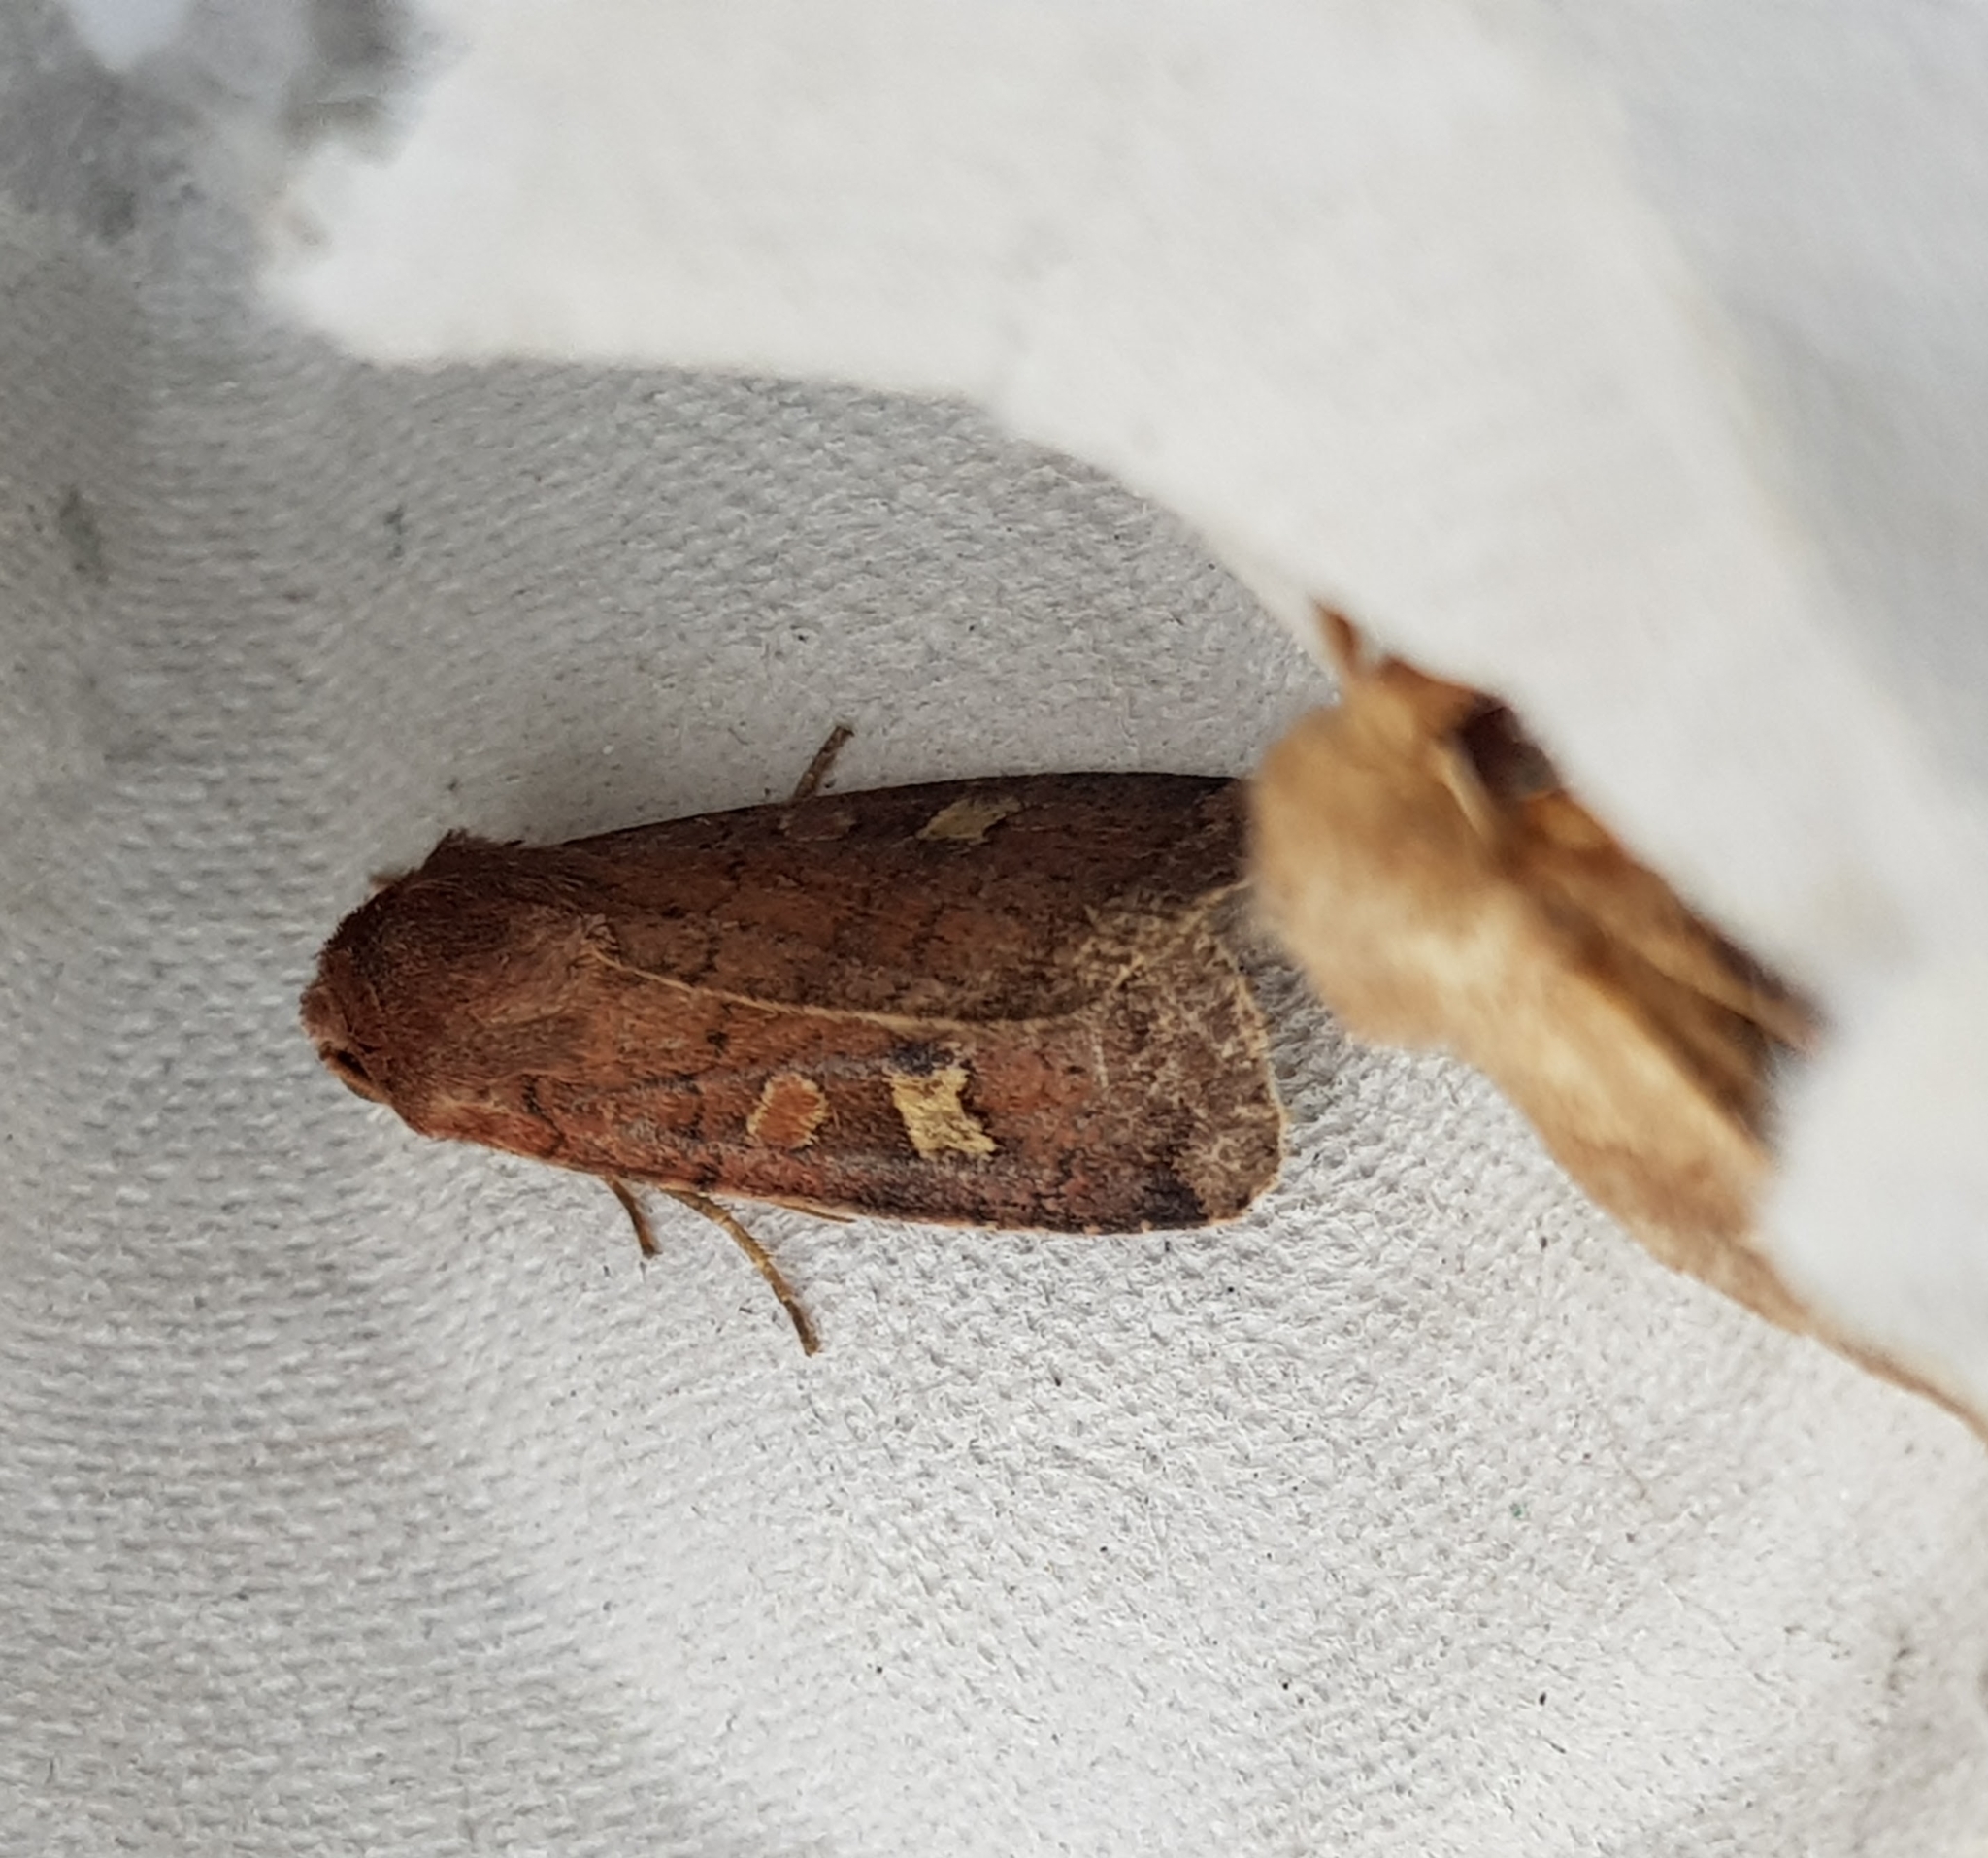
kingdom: Animalia
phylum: Arthropoda
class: Insecta
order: Lepidoptera
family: Noctuidae
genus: Xestia
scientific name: Xestia xanthographa
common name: Square-spot rustic
